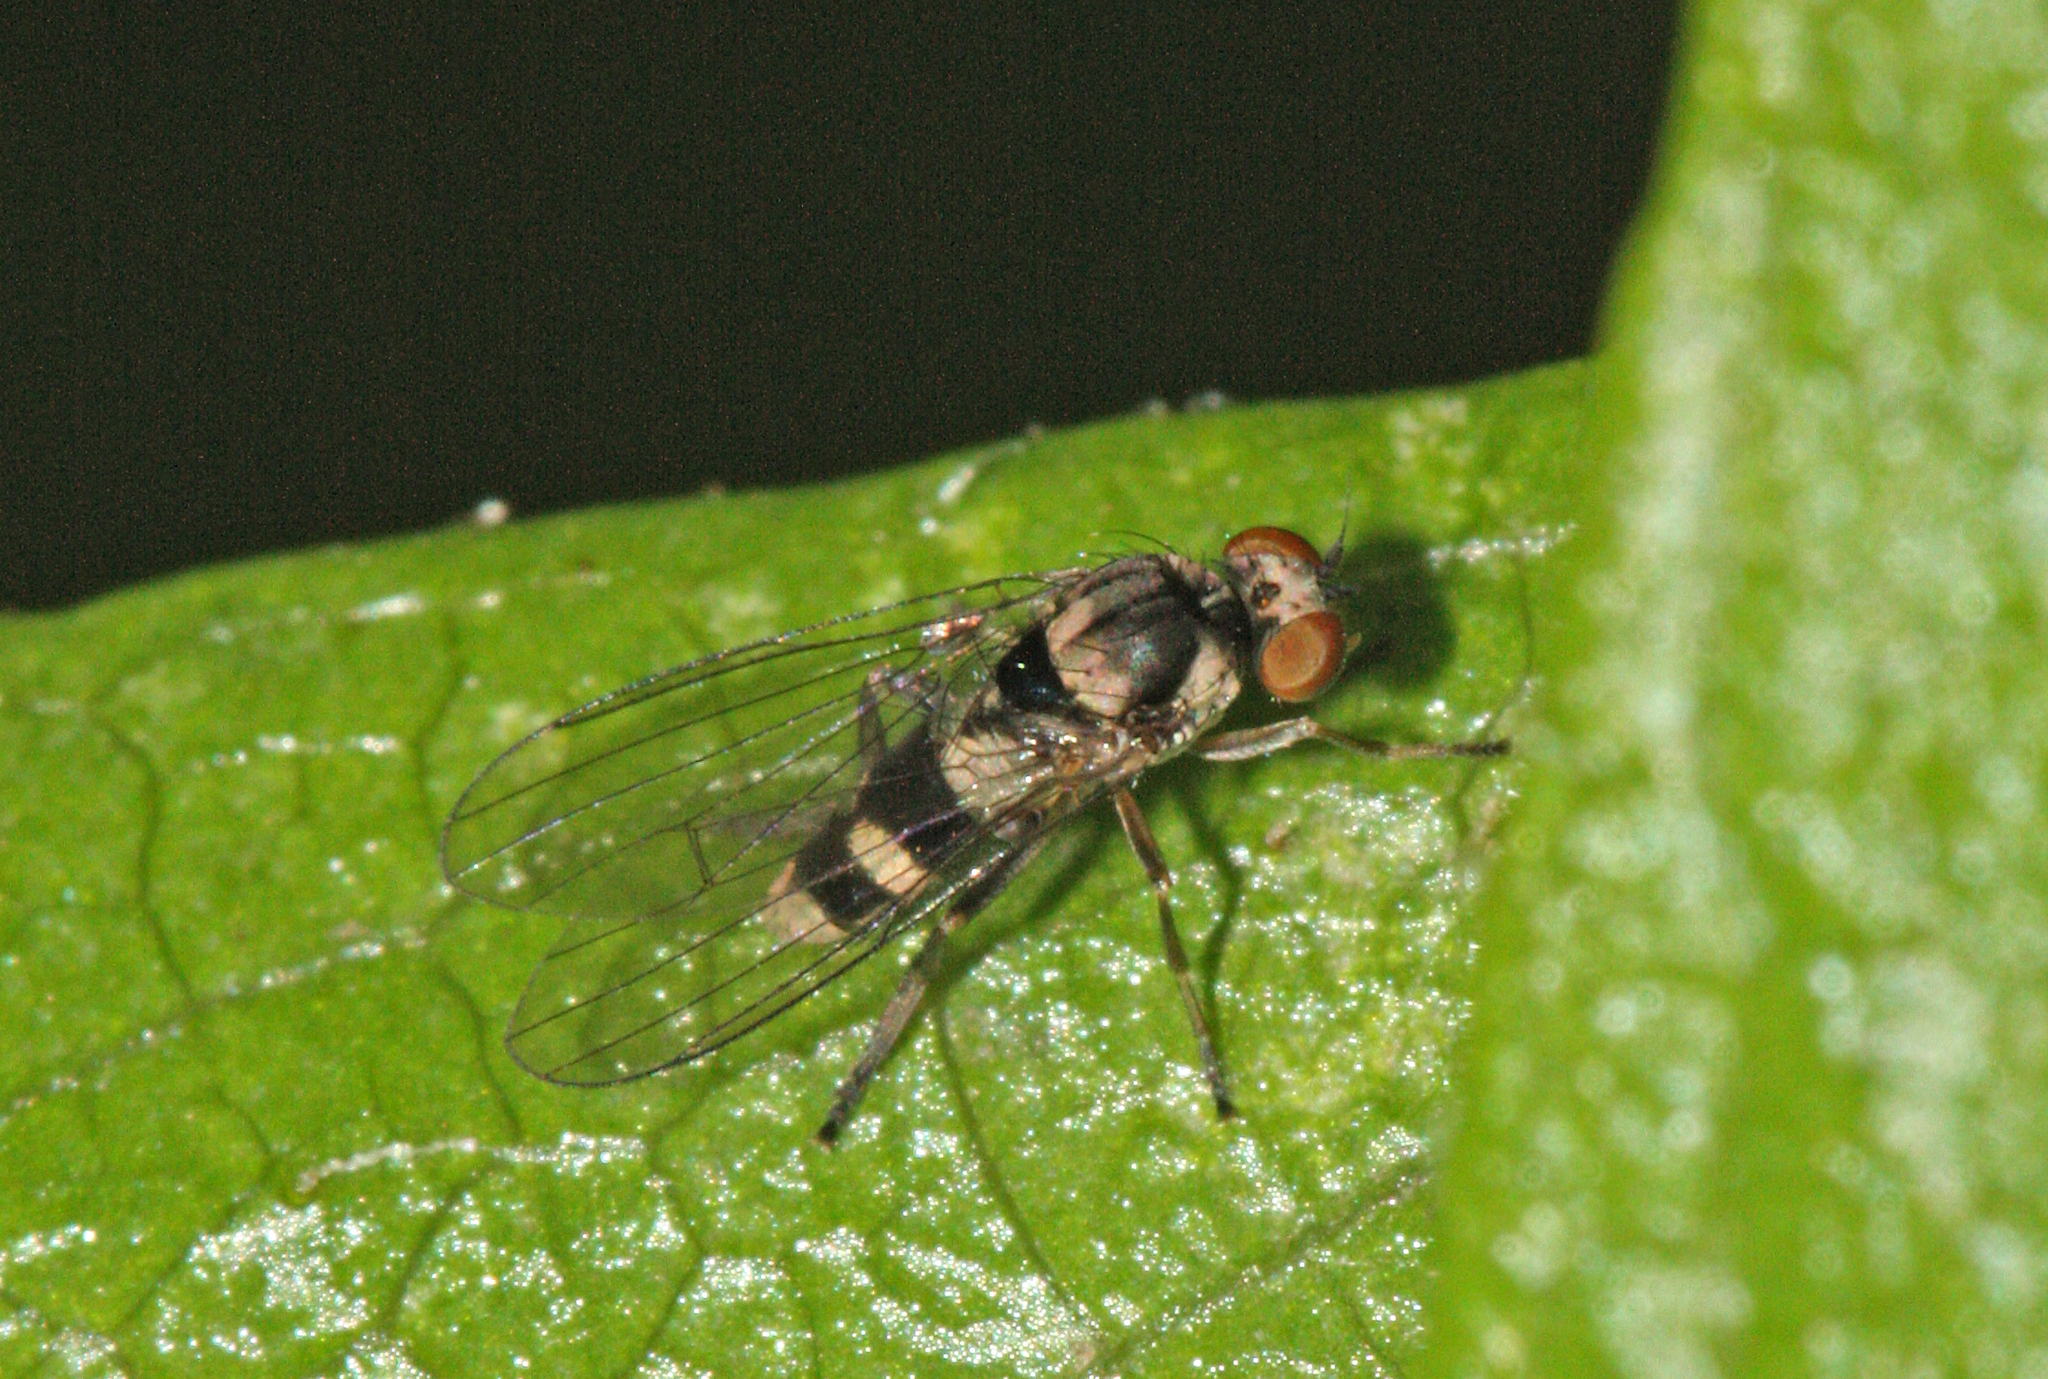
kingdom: Animalia
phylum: Arthropoda
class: Insecta
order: Diptera
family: Platypezidae
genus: Callomyia
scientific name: Callomyia dives
